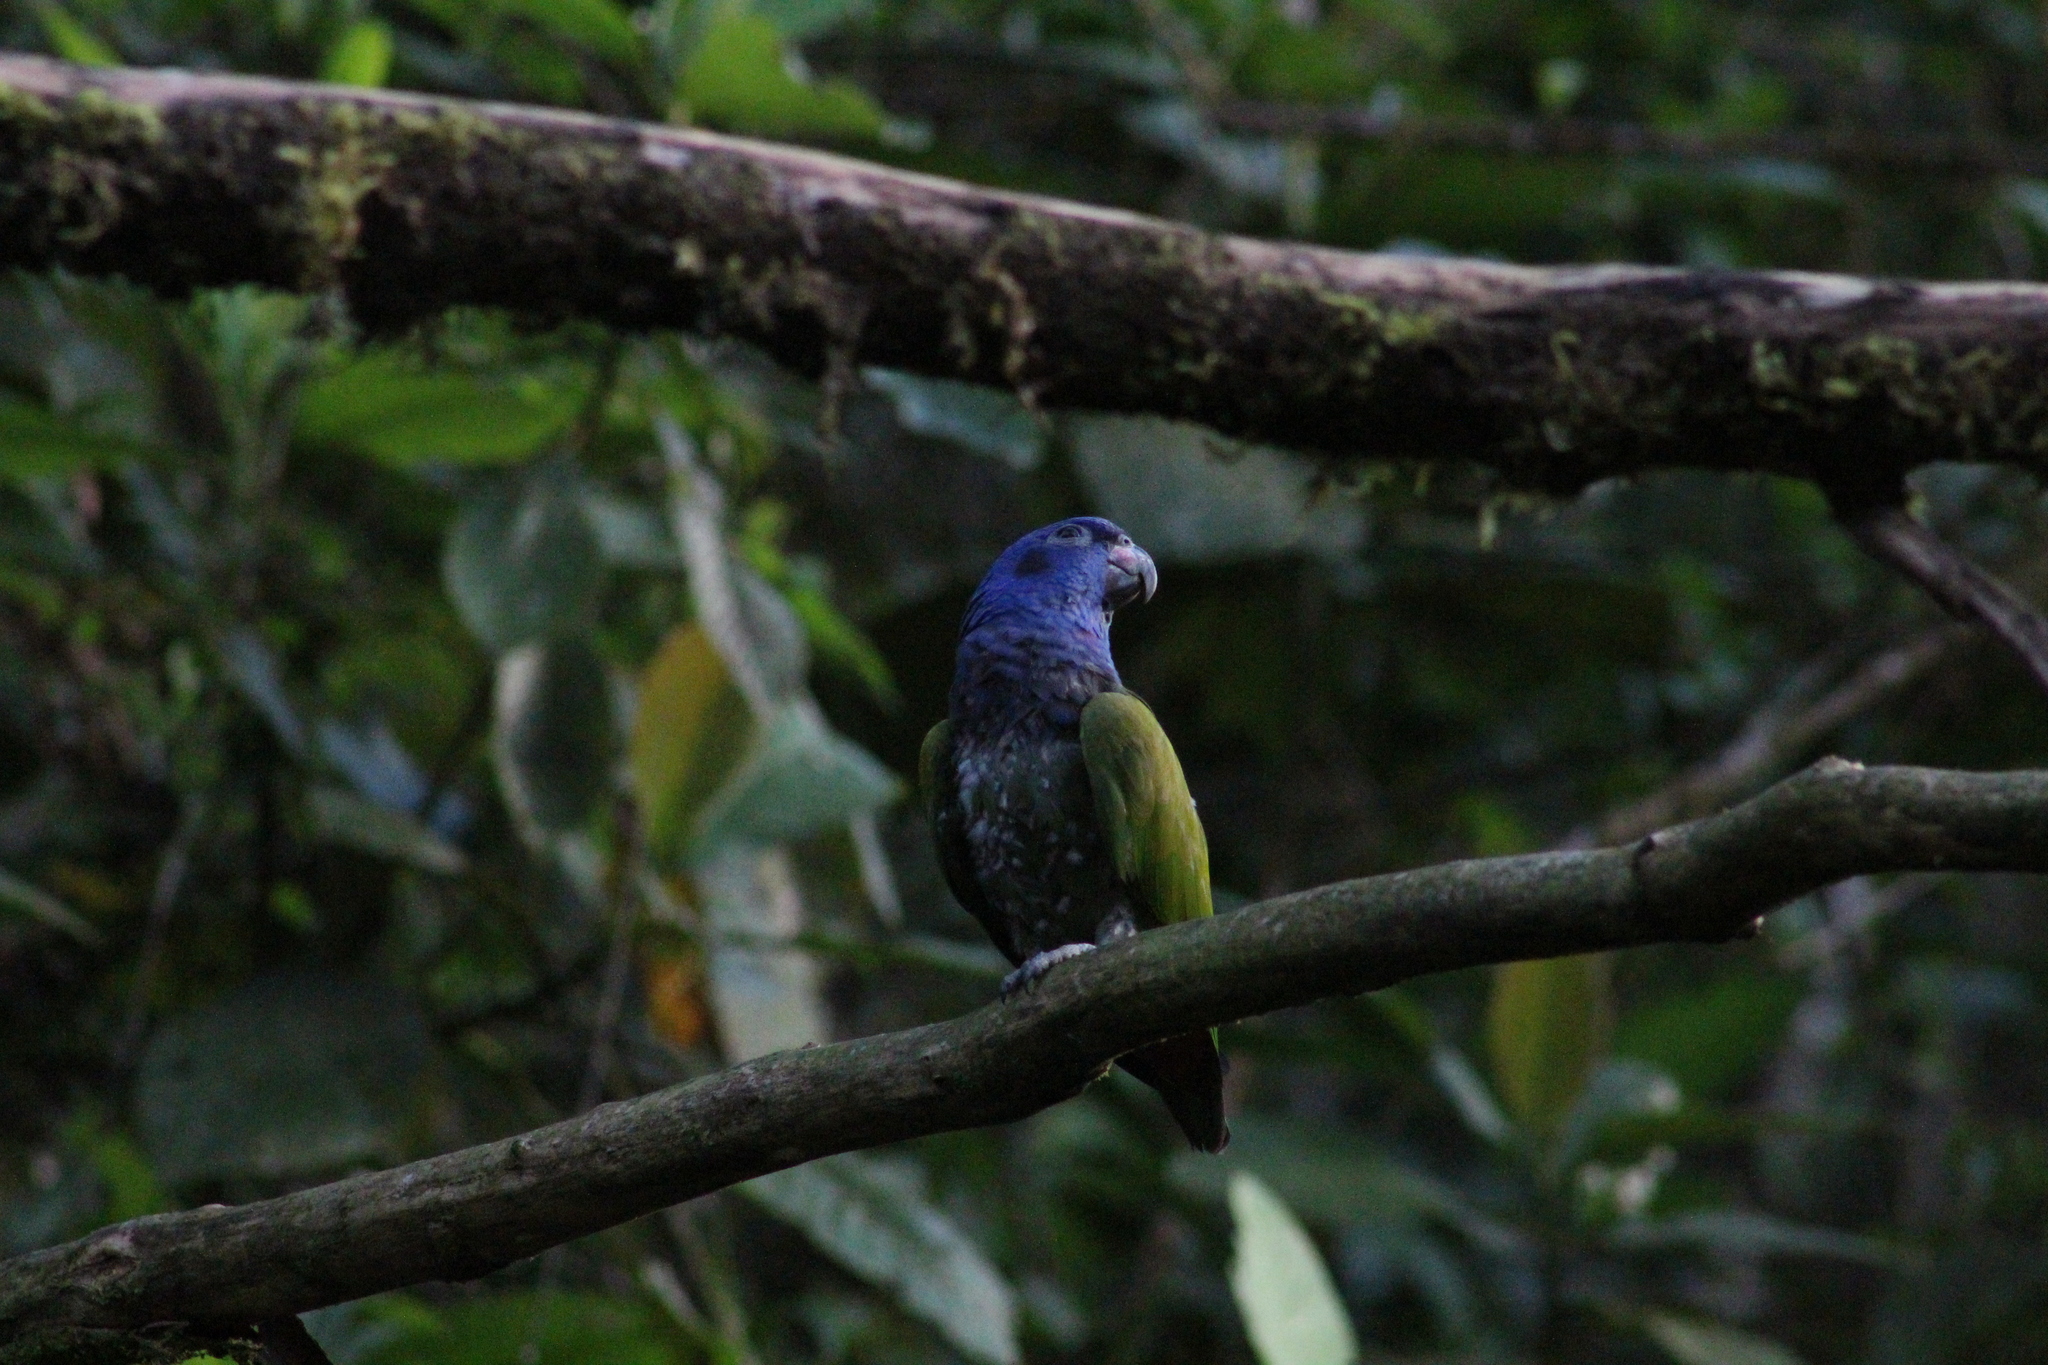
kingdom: Animalia
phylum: Chordata
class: Aves
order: Psittaciformes
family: Psittacidae
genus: Pionus
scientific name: Pionus menstruus
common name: Blue-headed parrot
